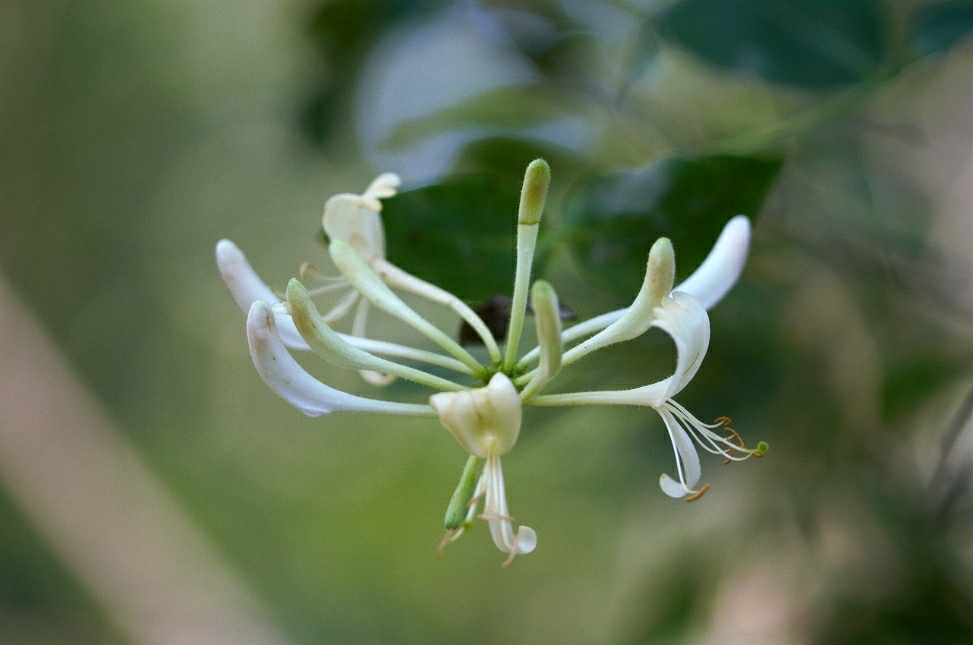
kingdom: Plantae
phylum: Tracheophyta
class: Magnoliopsida
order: Dipsacales
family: Caprifoliaceae
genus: Lonicera
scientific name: Lonicera periclymenum
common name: European honeysuckle
